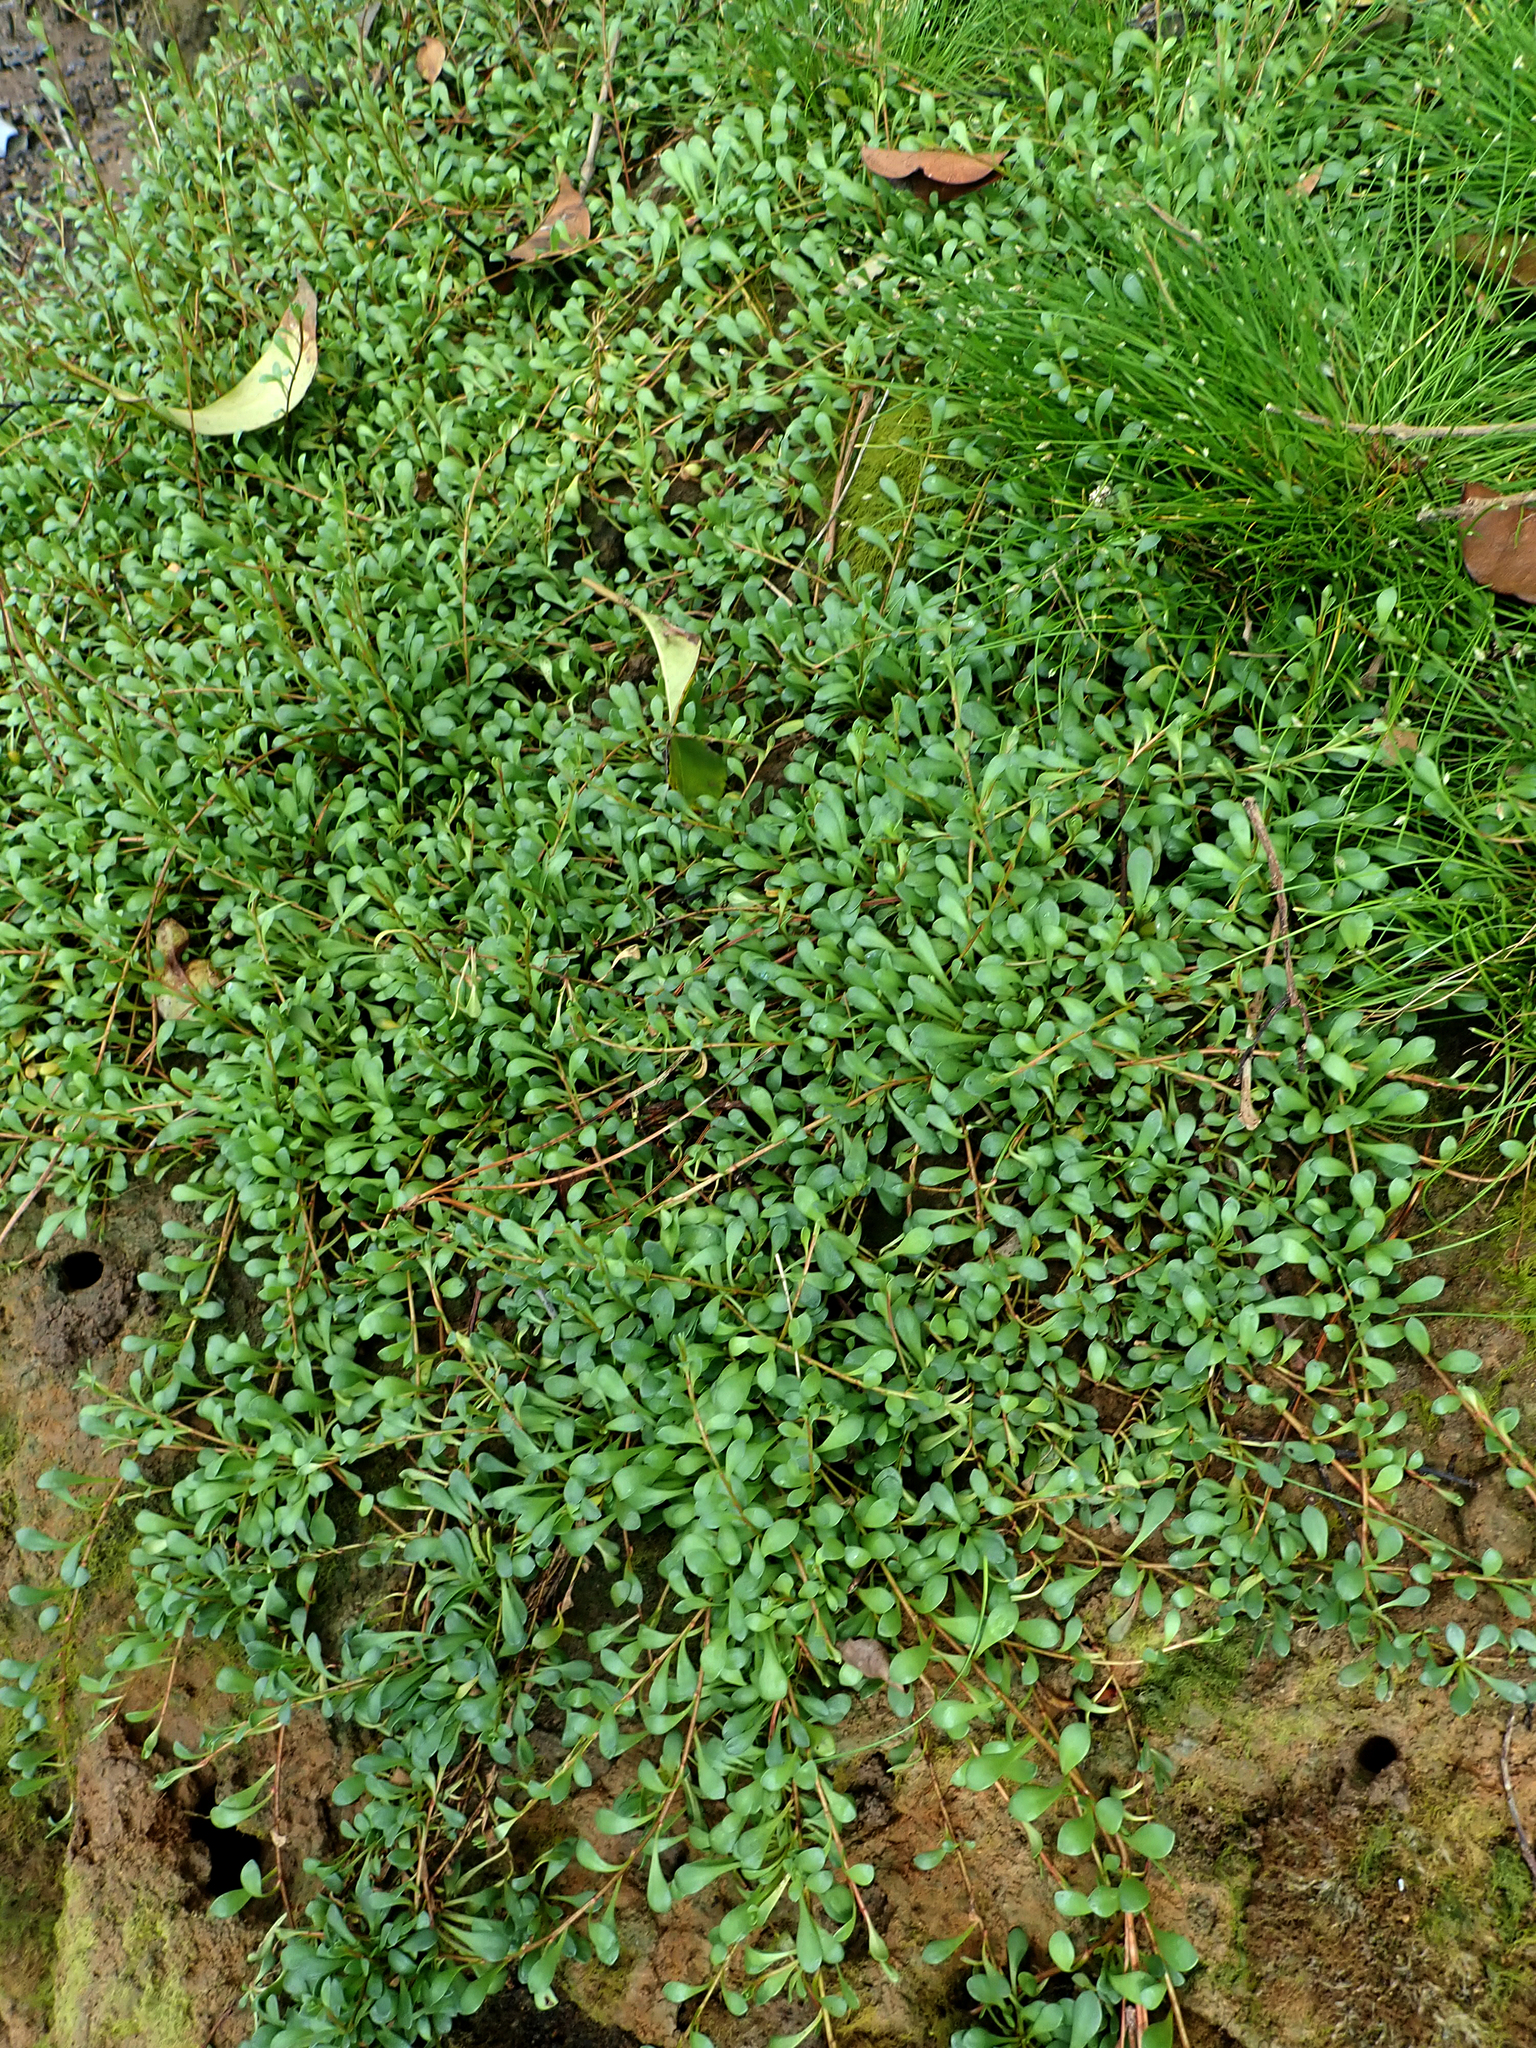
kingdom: Plantae
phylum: Tracheophyta
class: Magnoliopsida
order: Ericales
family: Primulaceae
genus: Samolus
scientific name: Samolus repens
